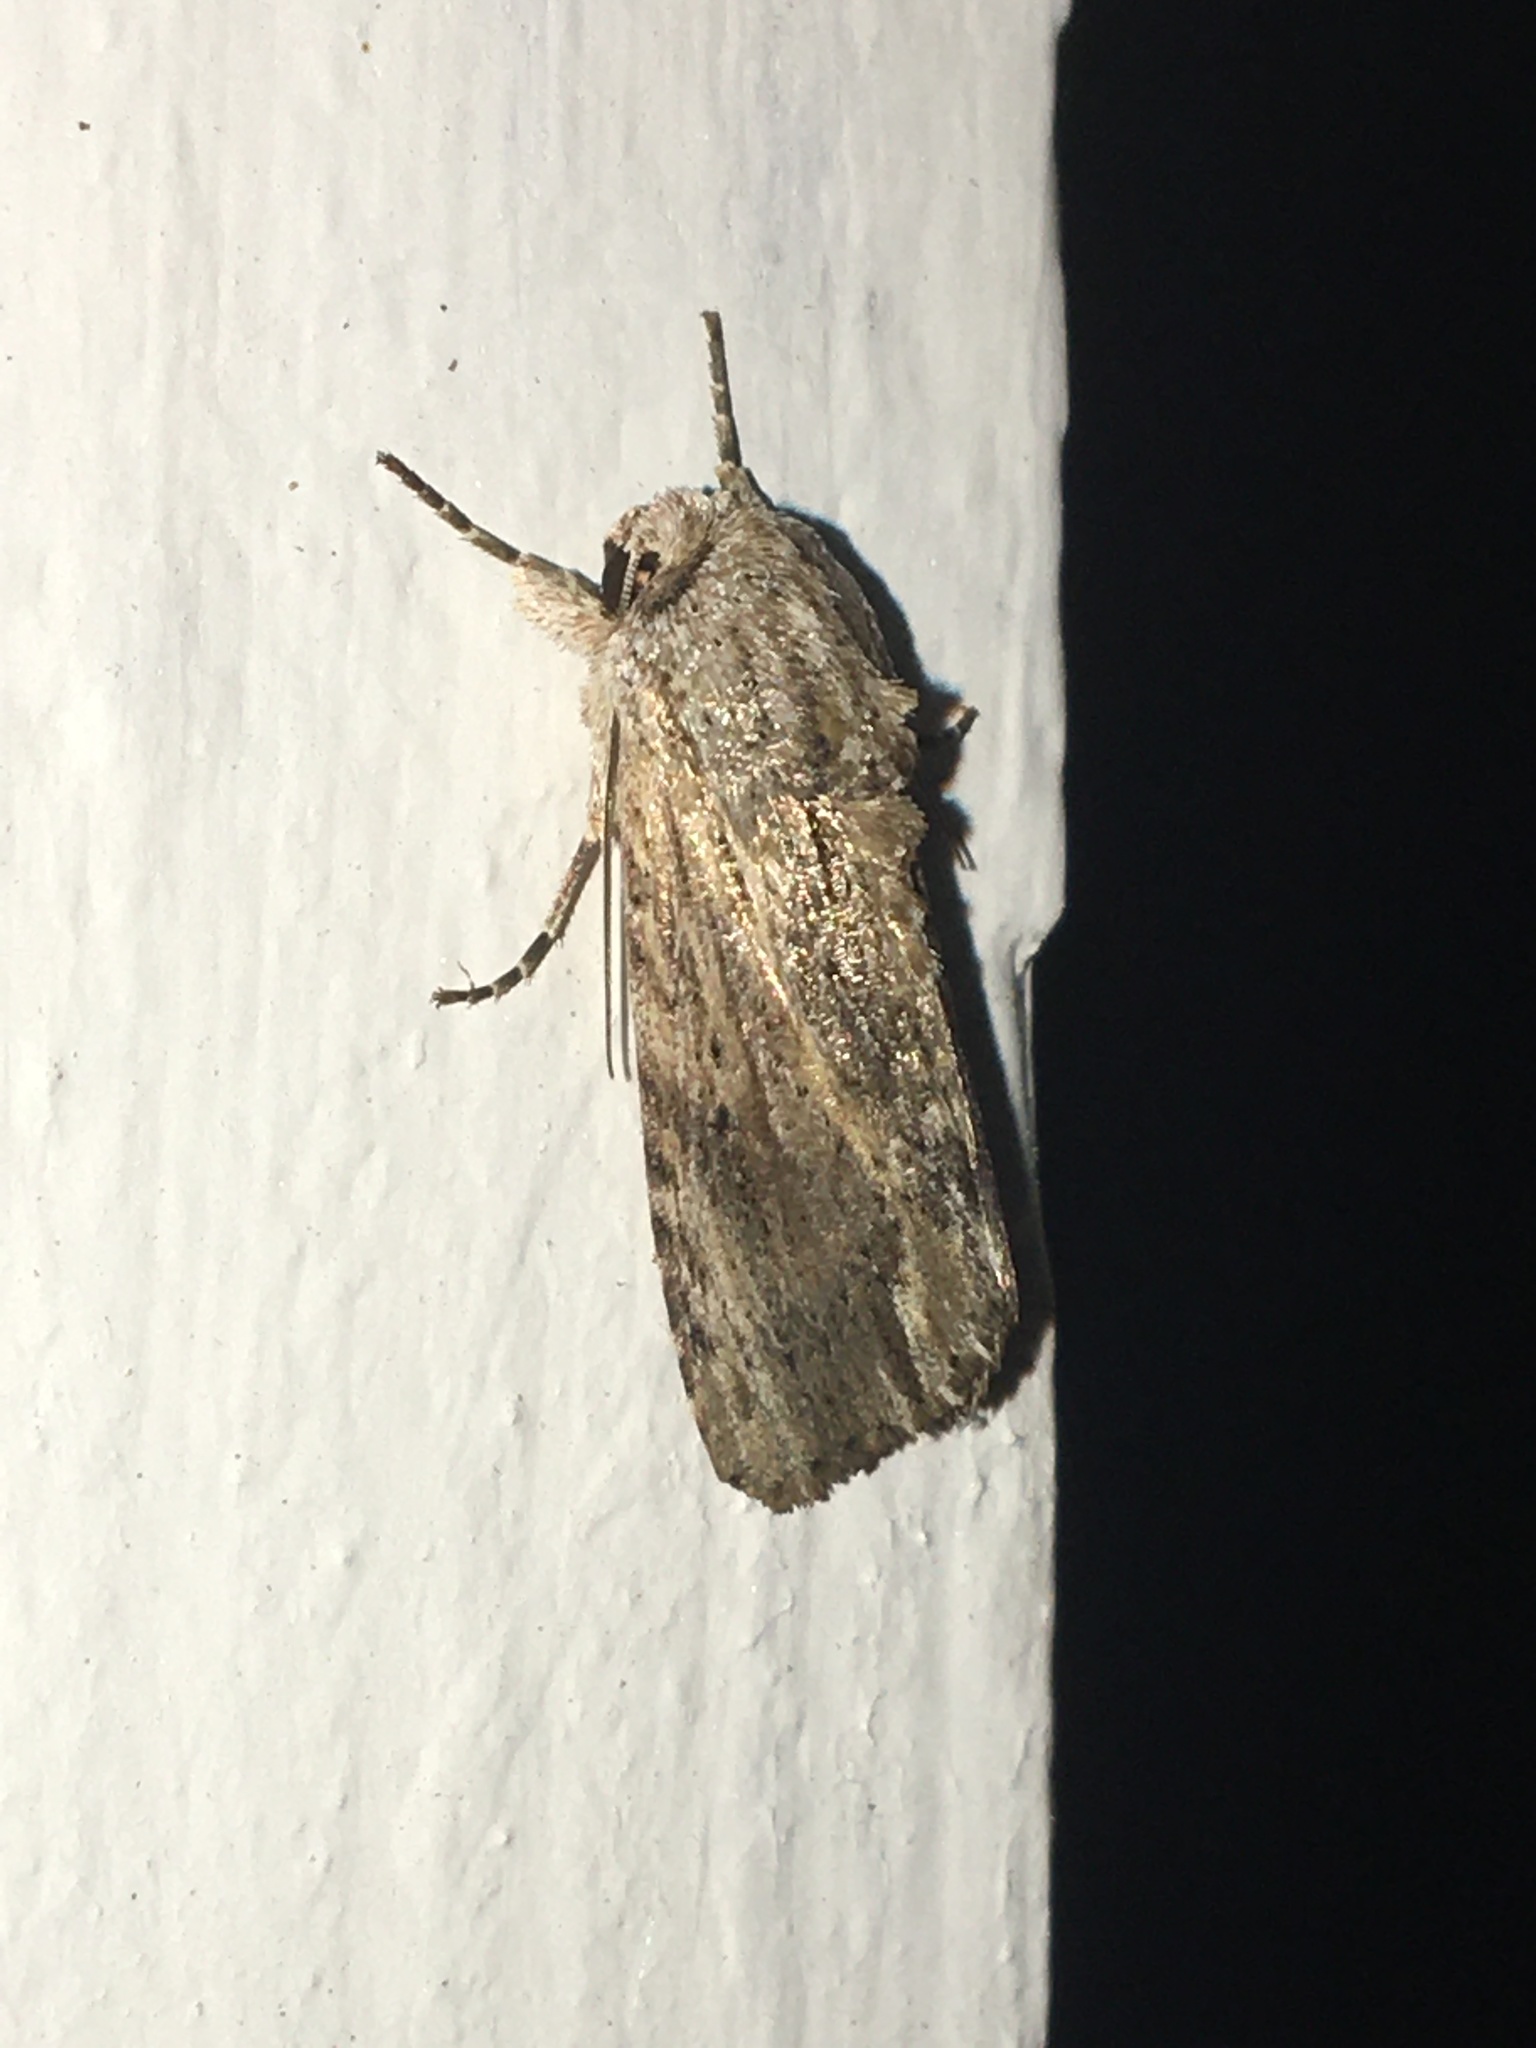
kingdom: Animalia
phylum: Arthropoda
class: Insecta
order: Lepidoptera
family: Noctuidae
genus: Spodoptera
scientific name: Spodoptera eridania
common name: Southern army worm
